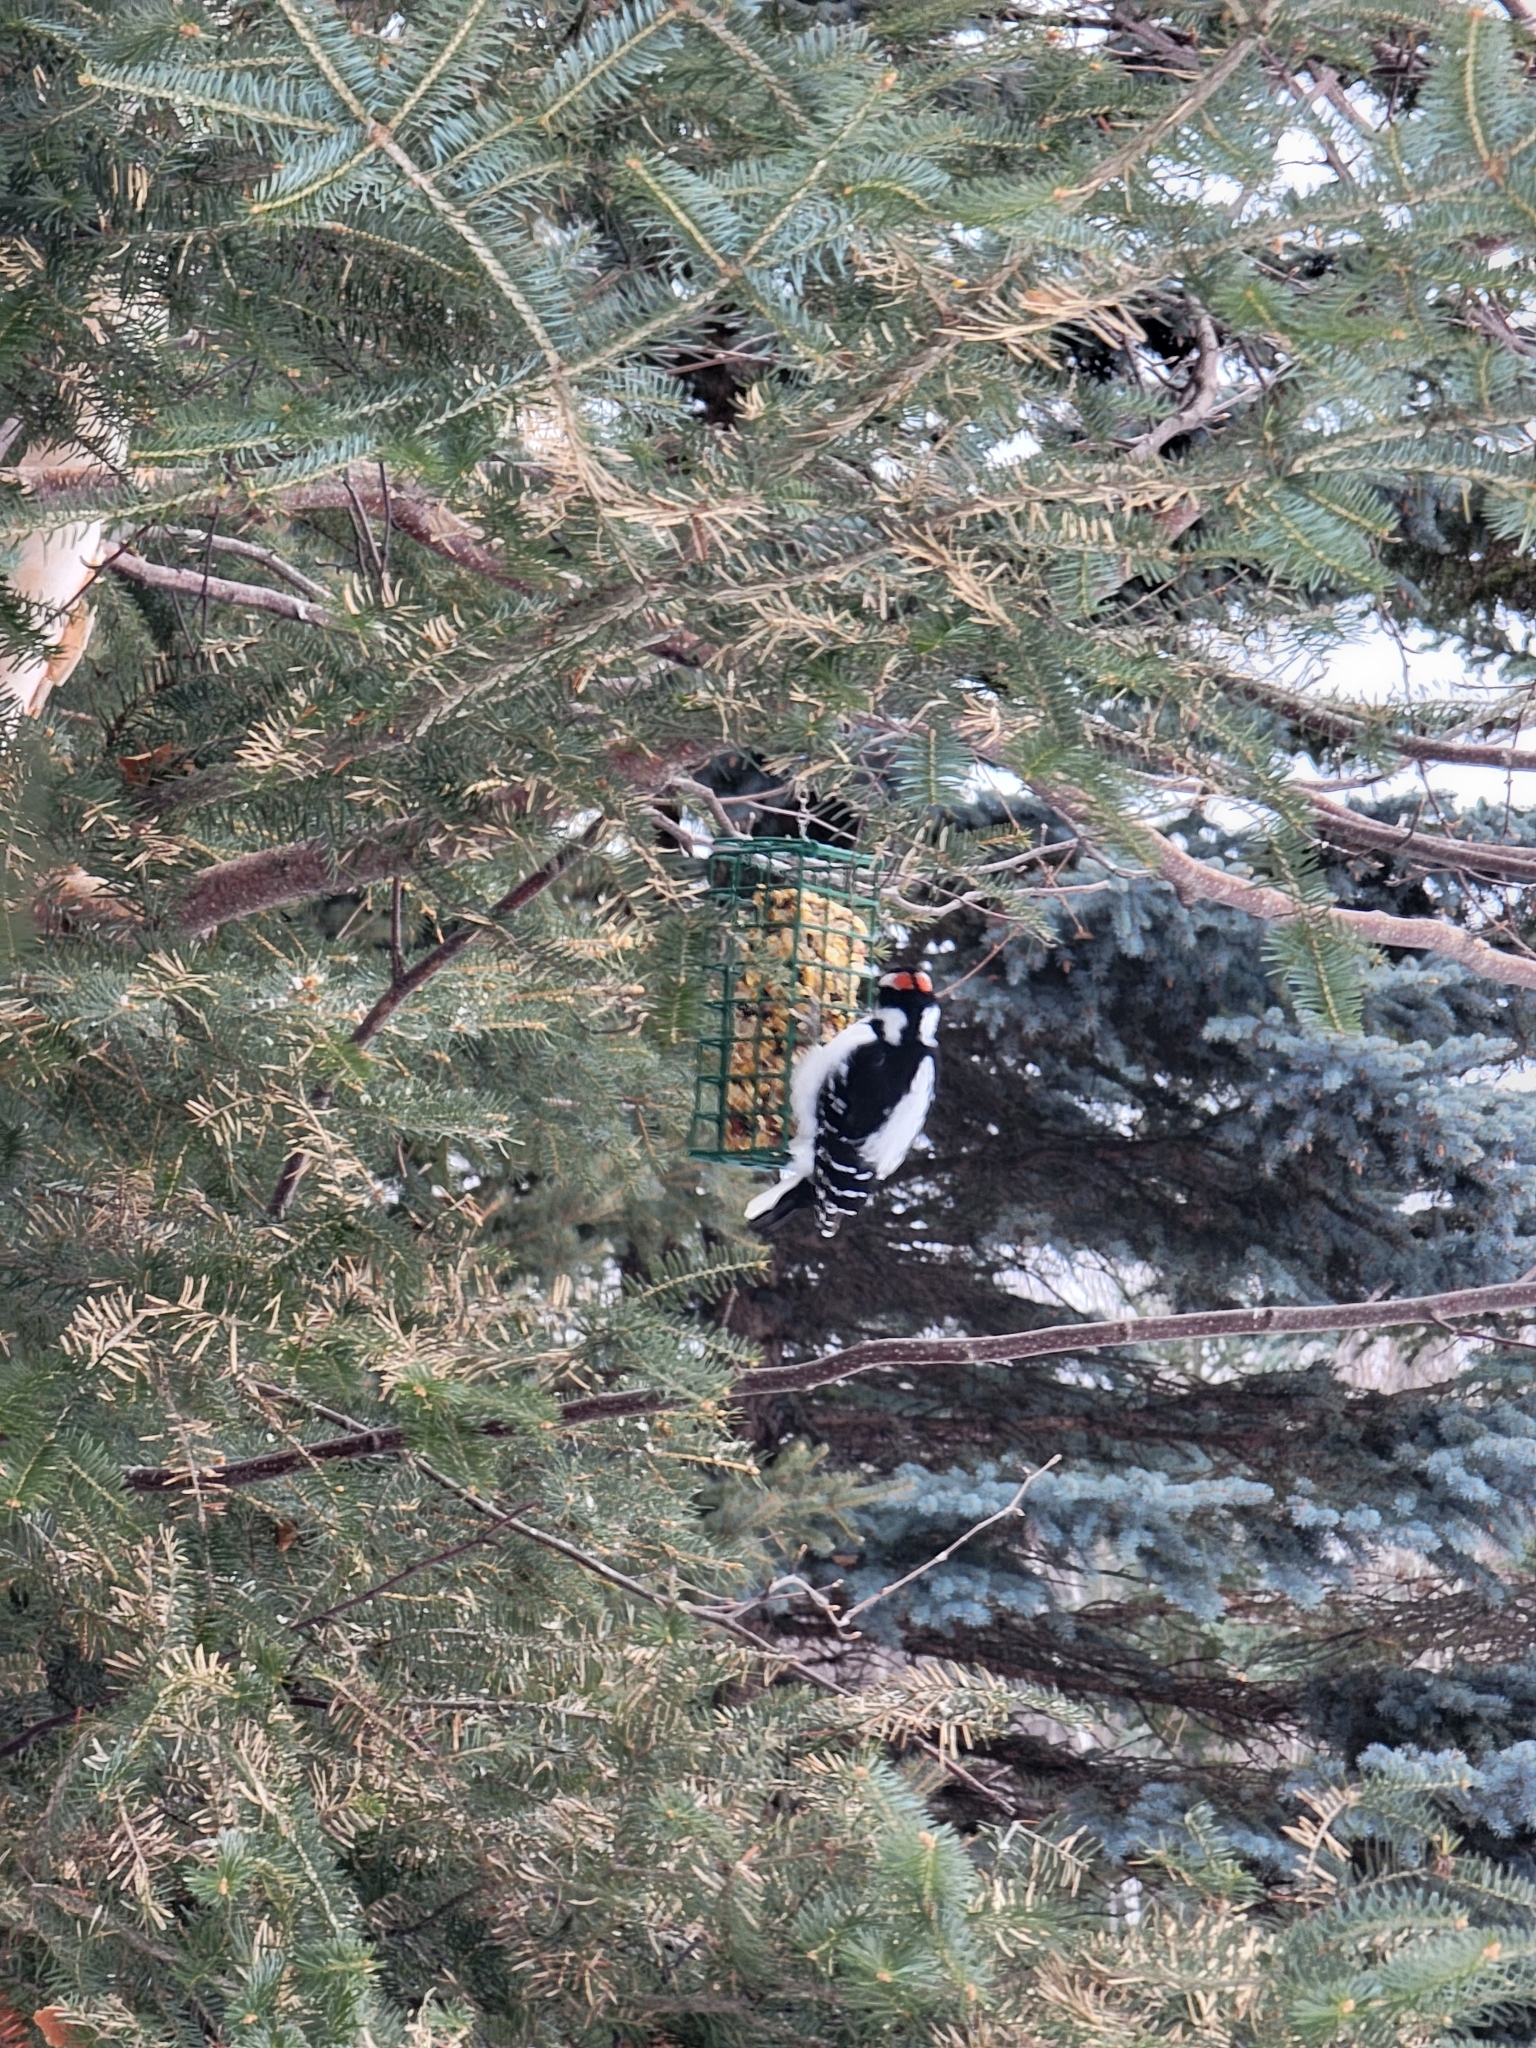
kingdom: Animalia
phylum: Chordata
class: Aves
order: Piciformes
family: Picidae
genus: Leuconotopicus
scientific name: Leuconotopicus villosus
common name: Hairy woodpecker
